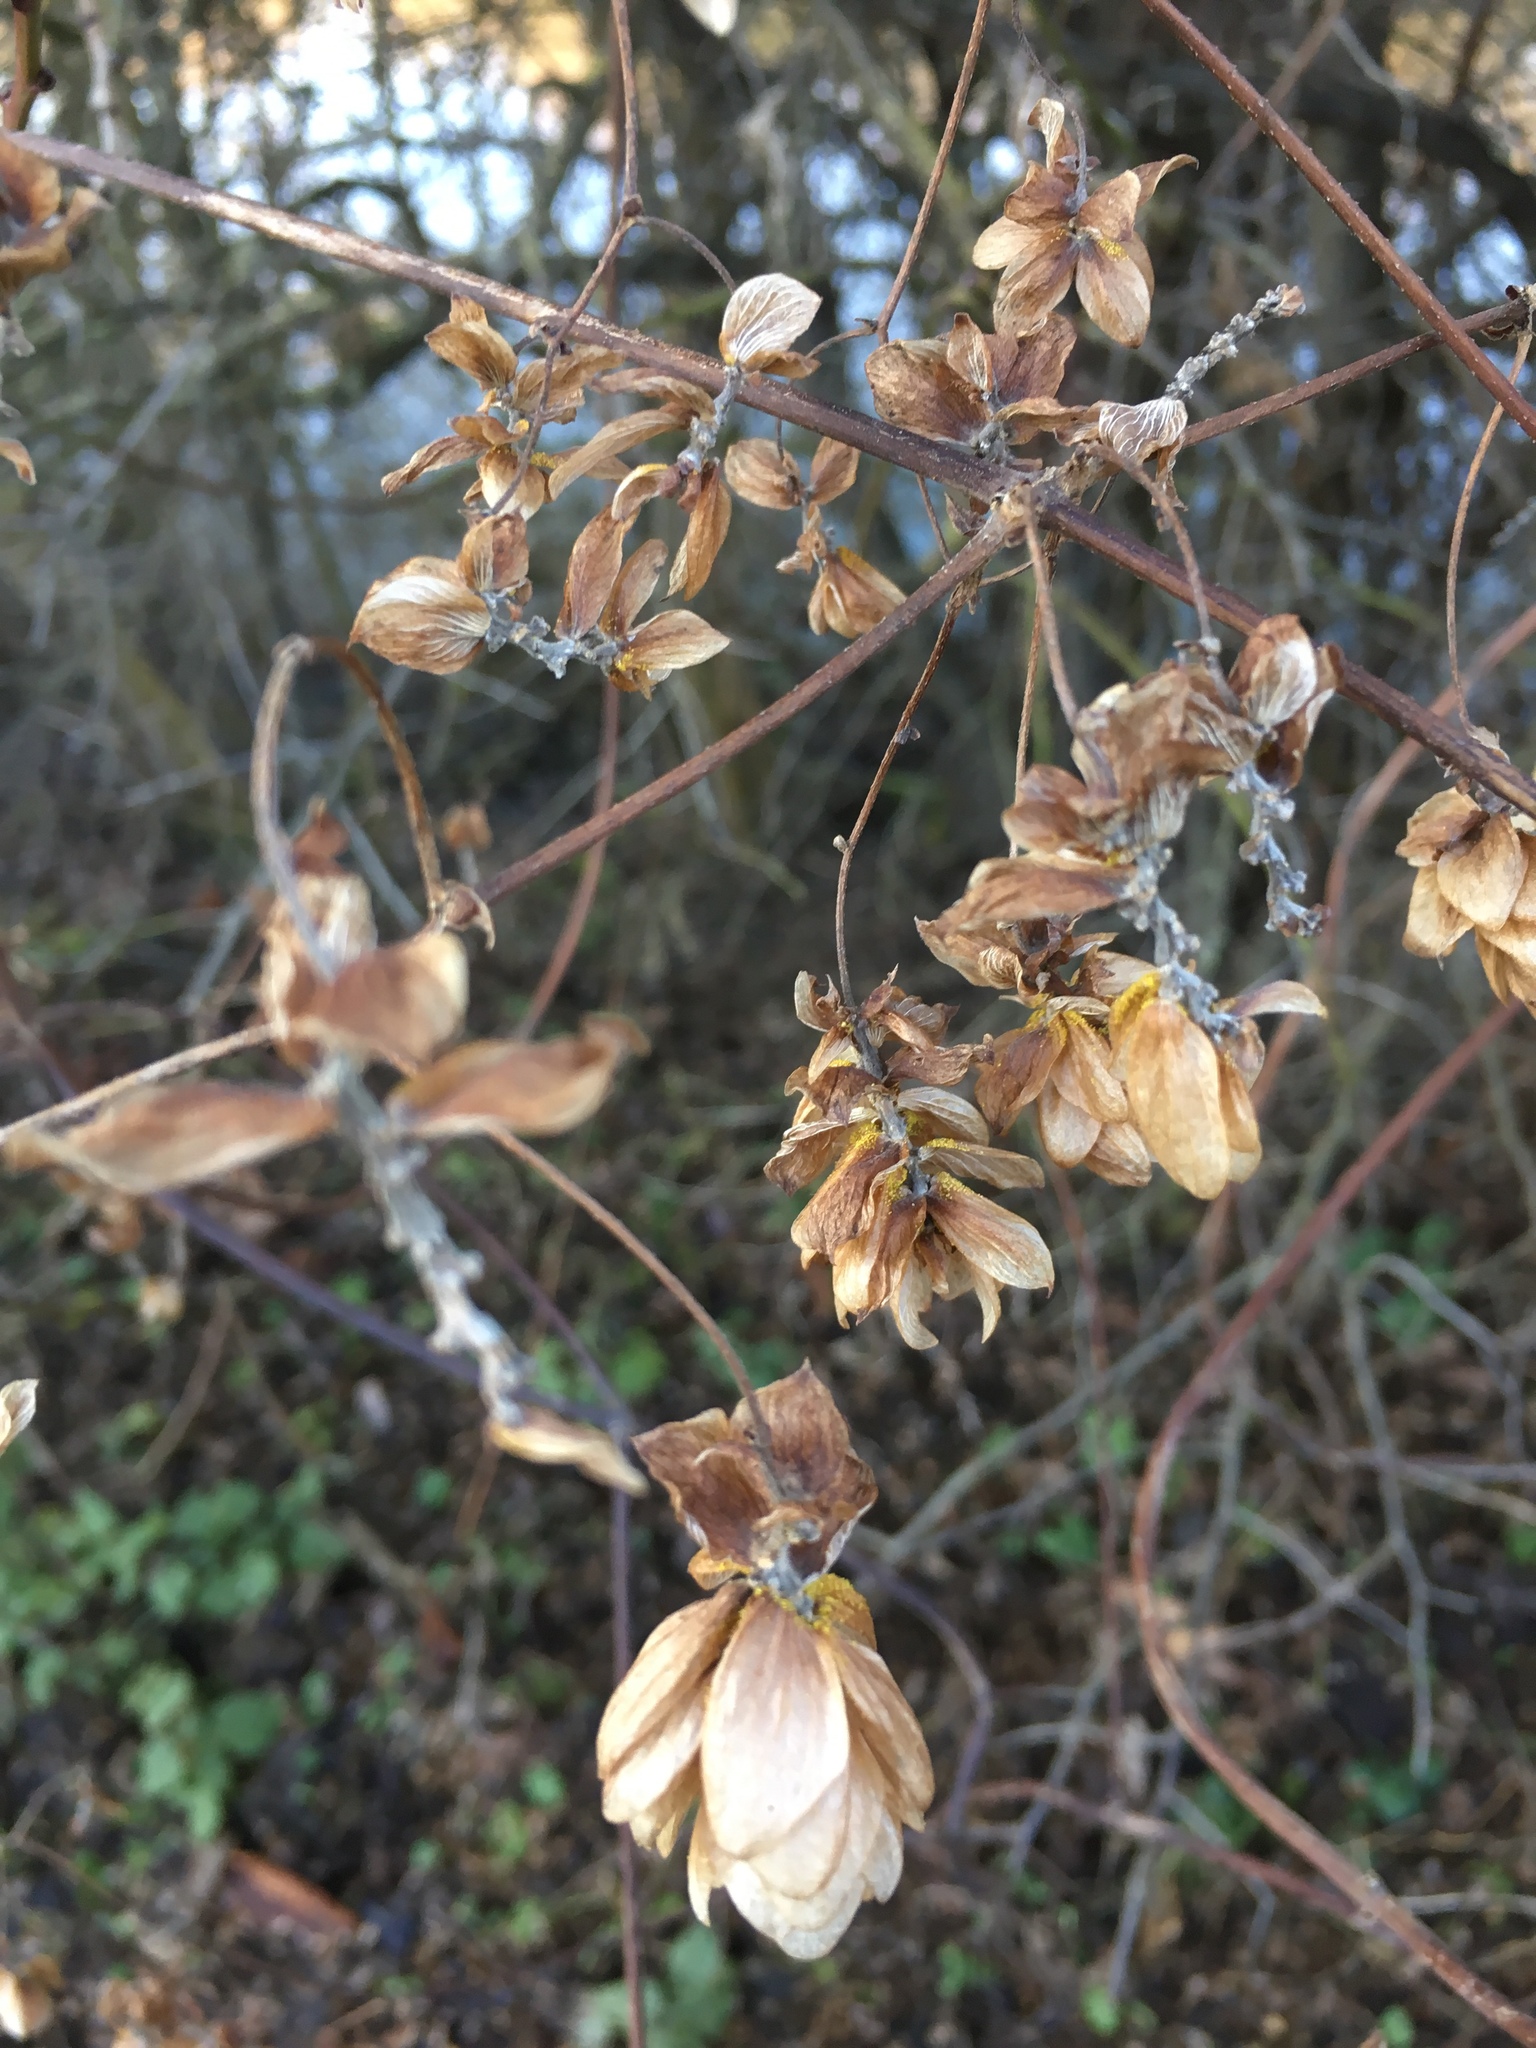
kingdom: Plantae
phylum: Tracheophyta
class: Magnoliopsida
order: Rosales
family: Cannabaceae
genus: Humulus
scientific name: Humulus lupulus
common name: Hop
